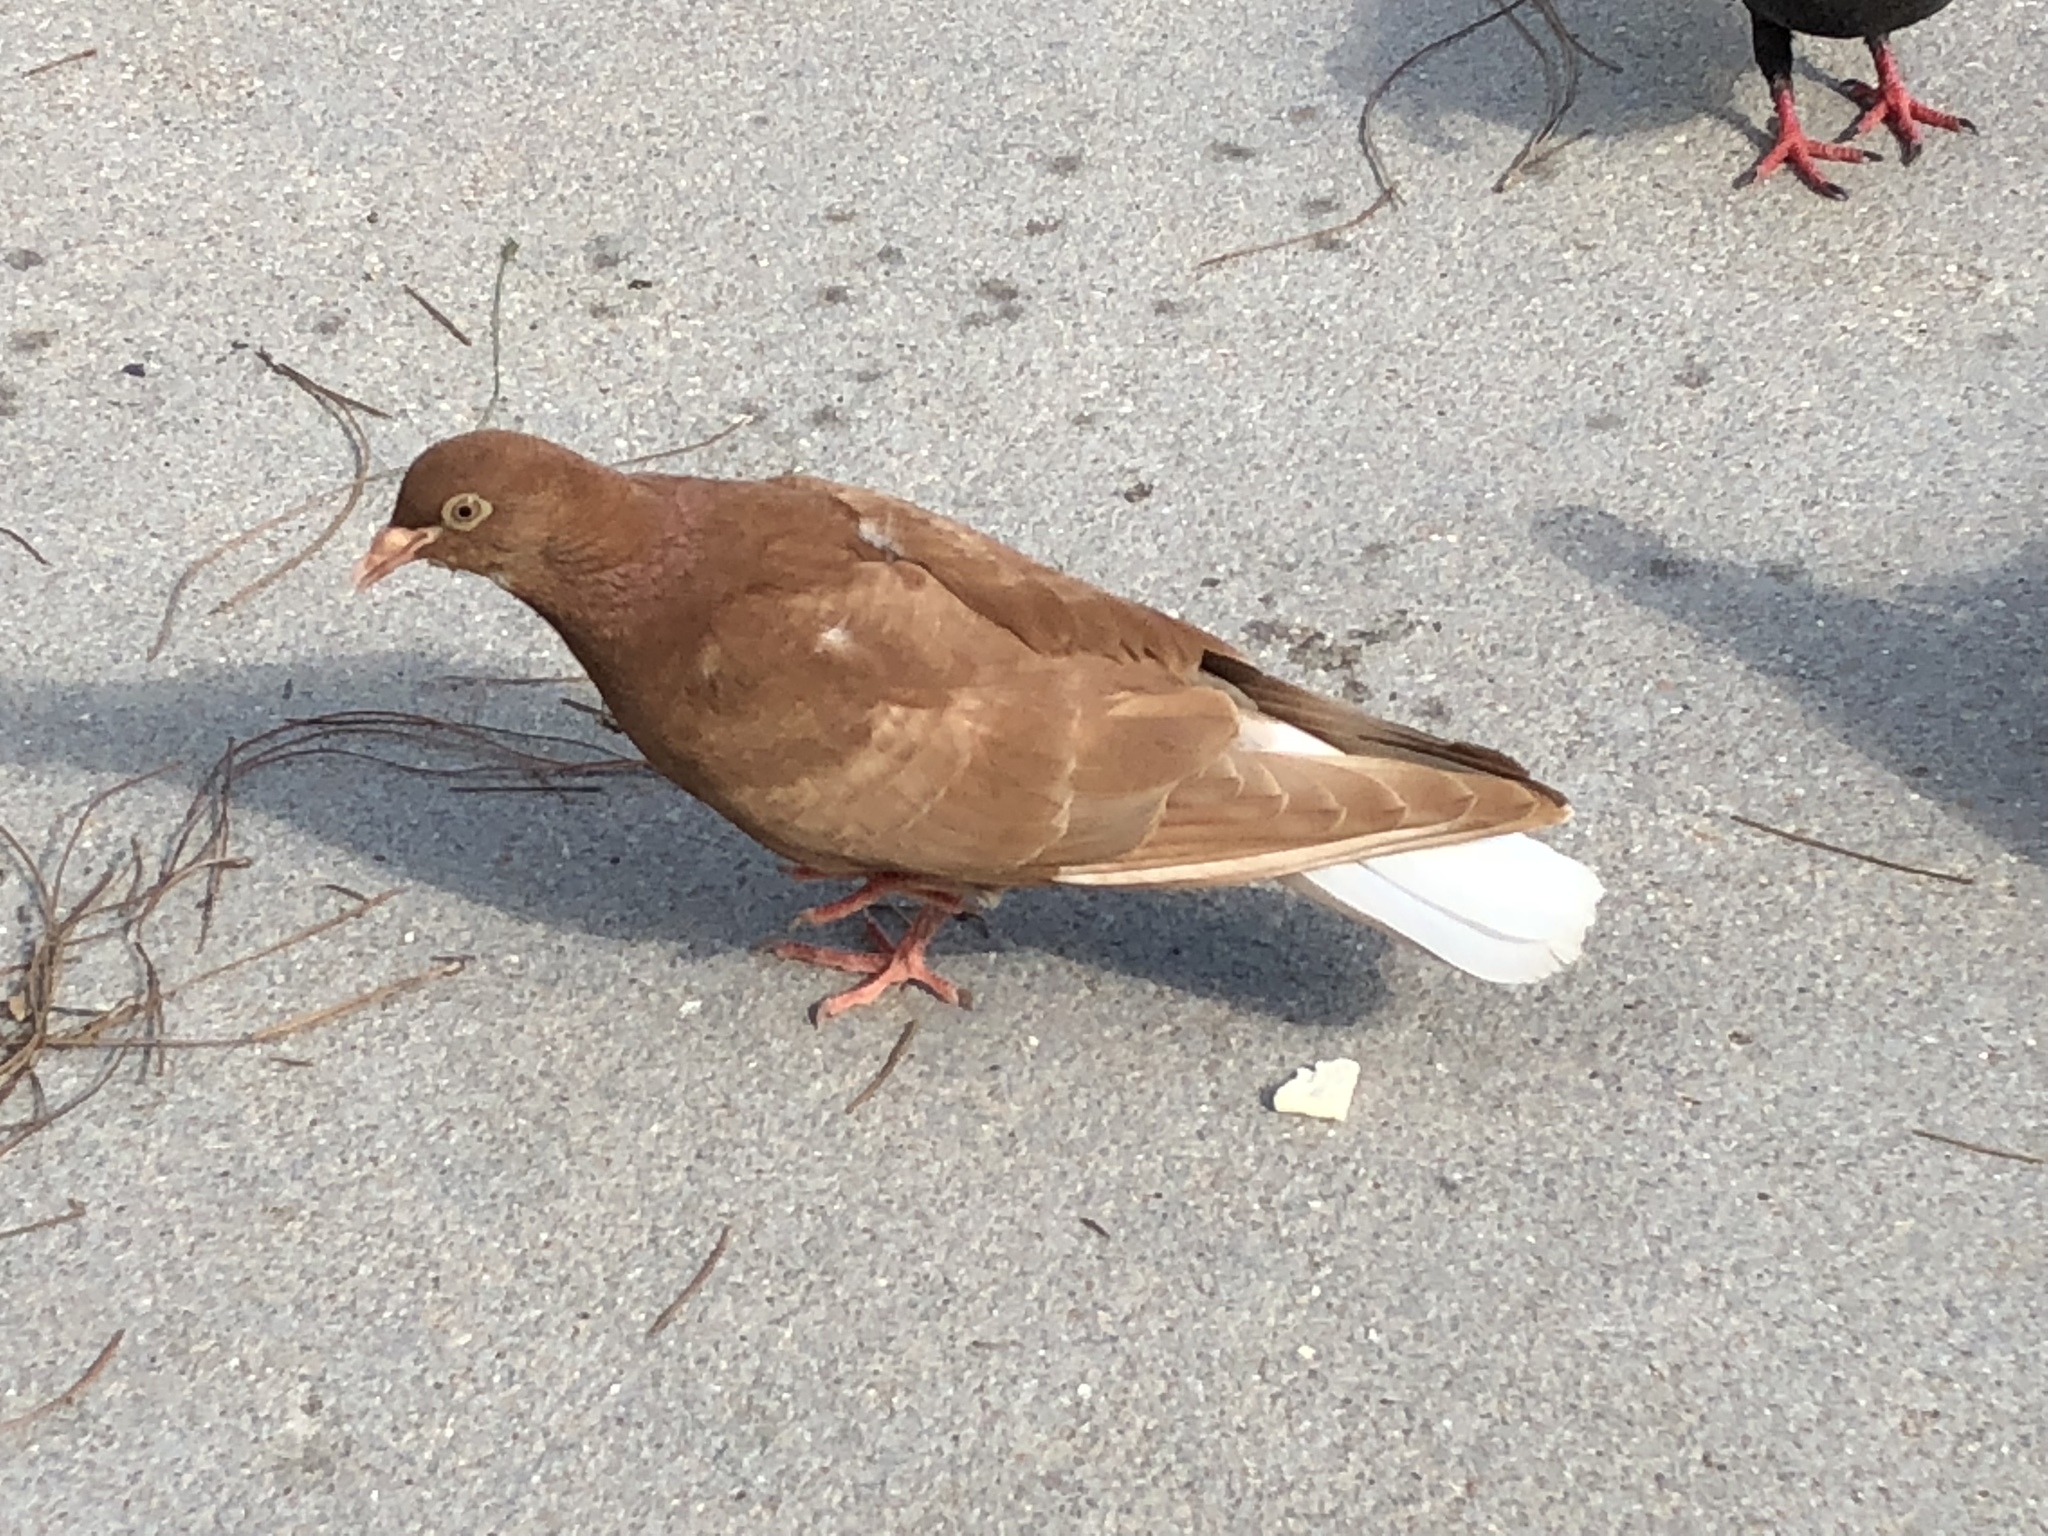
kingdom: Animalia
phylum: Chordata
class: Aves
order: Columbiformes
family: Columbidae
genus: Columba
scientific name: Columba livia
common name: Rock pigeon
